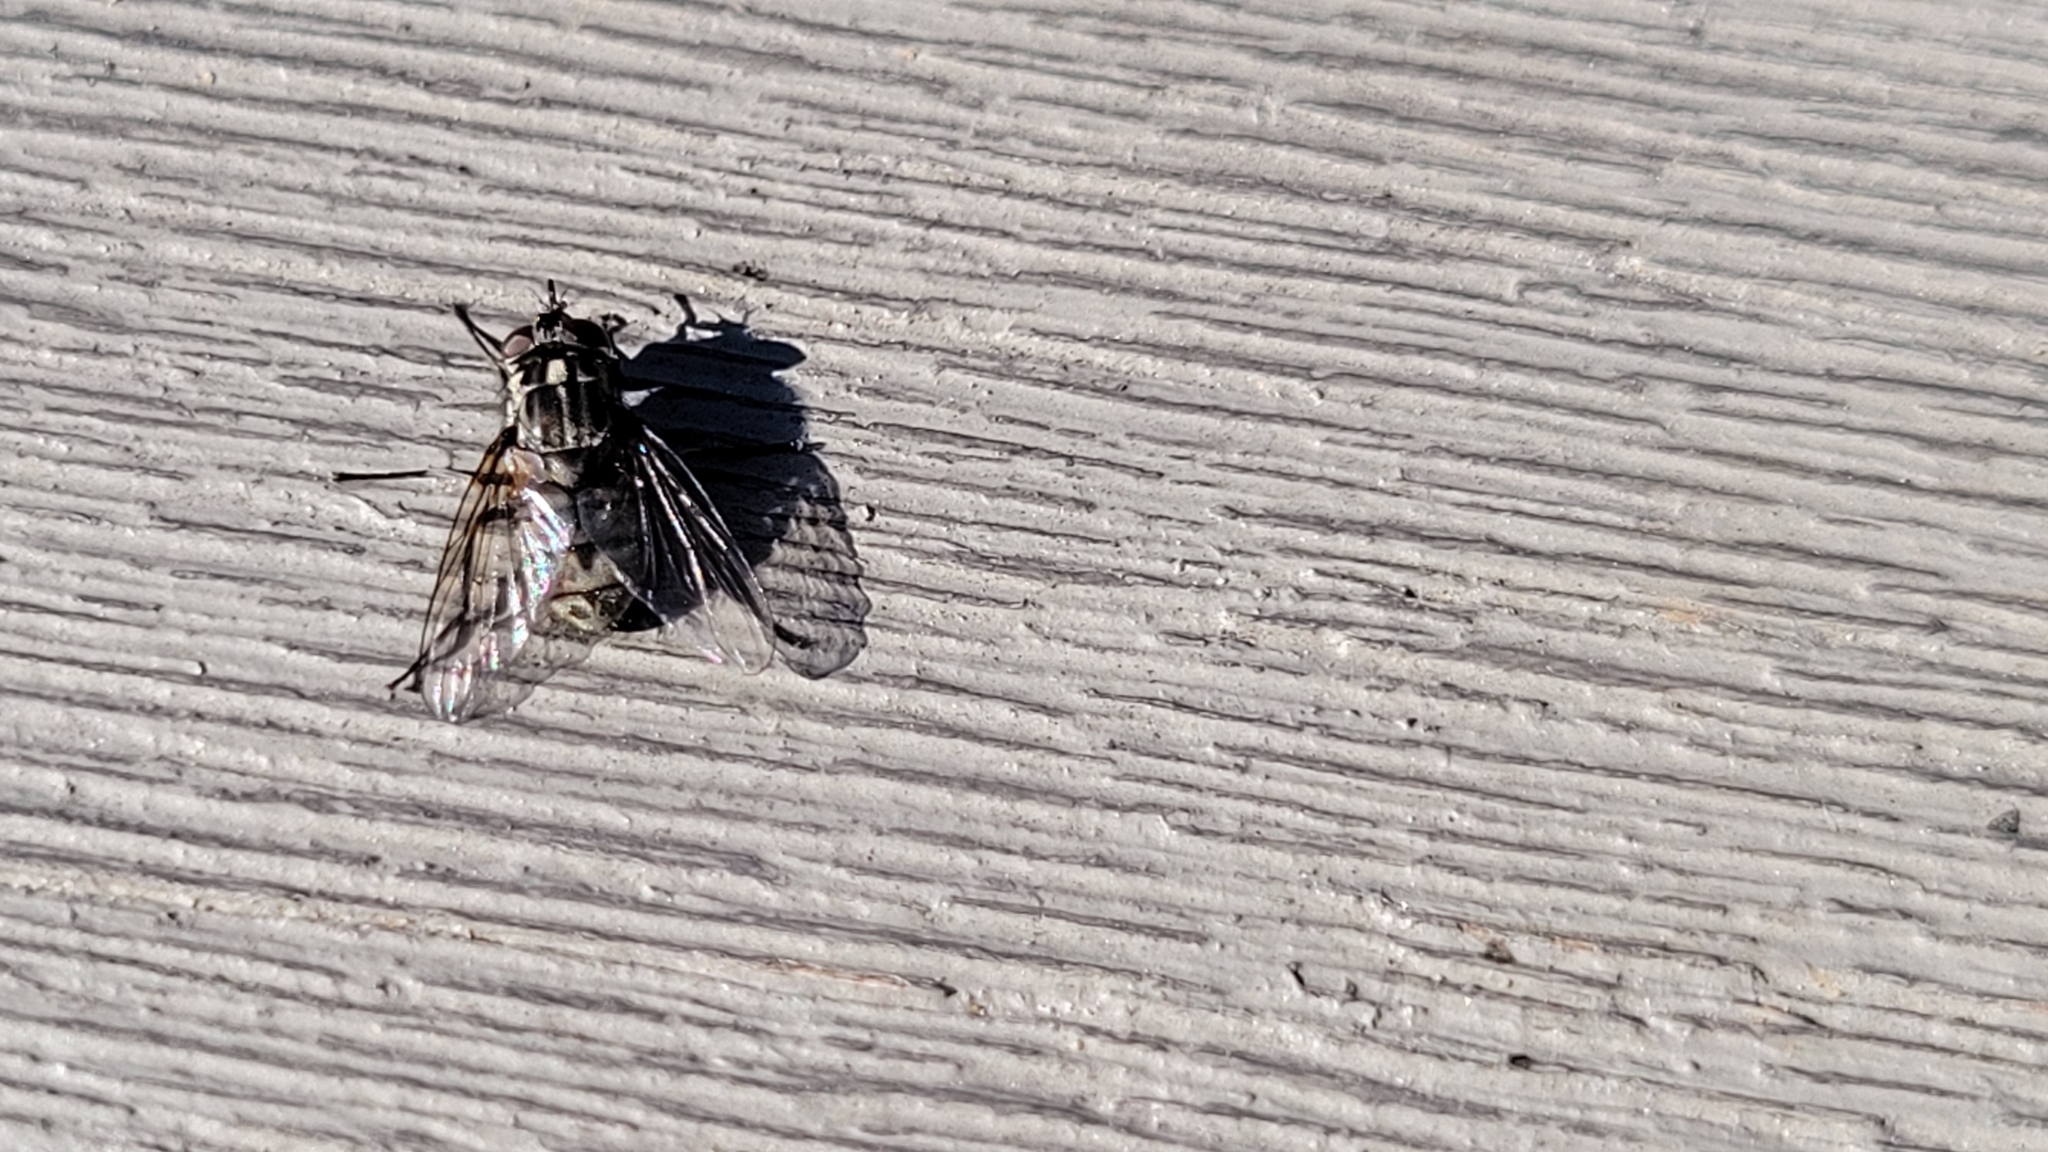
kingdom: Animalia
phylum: Arthropoda
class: Insecta
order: Diptera
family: Muscidae
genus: Stomoxys
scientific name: Stomoxys calcitrans
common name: Stable fly
